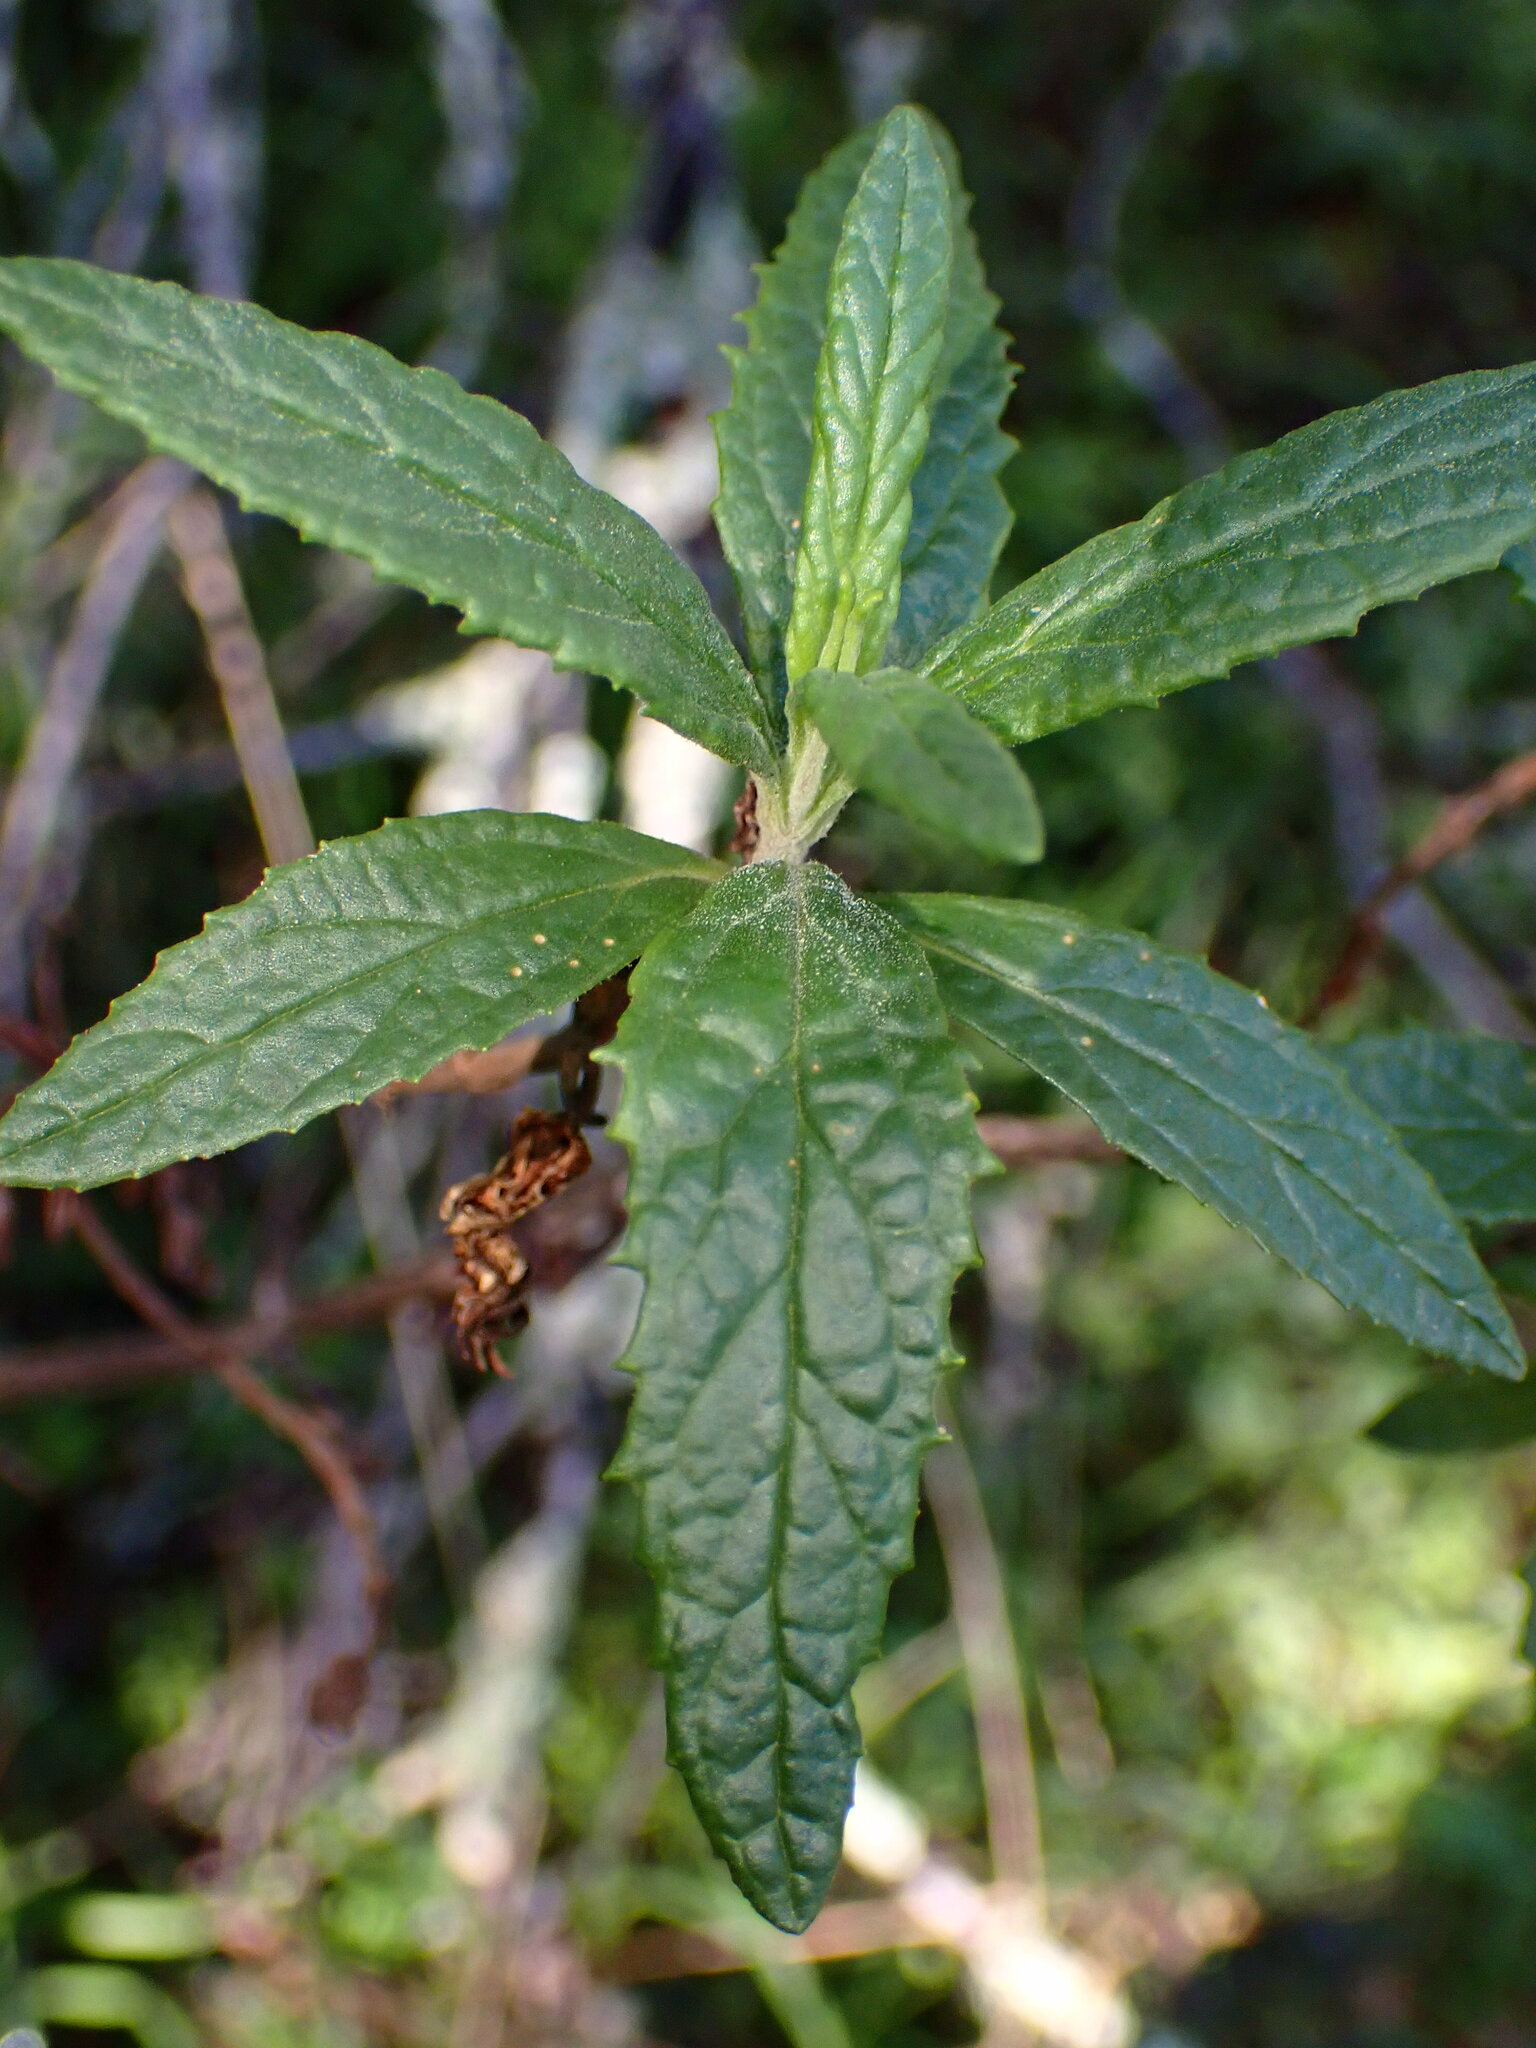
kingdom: Plantae
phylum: Tracheophyta
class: Magnoliopsida
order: Lamiales
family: Phrymaceae
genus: Diplacus
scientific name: Diplacus aurantiacus
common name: Bush monkey-flower
